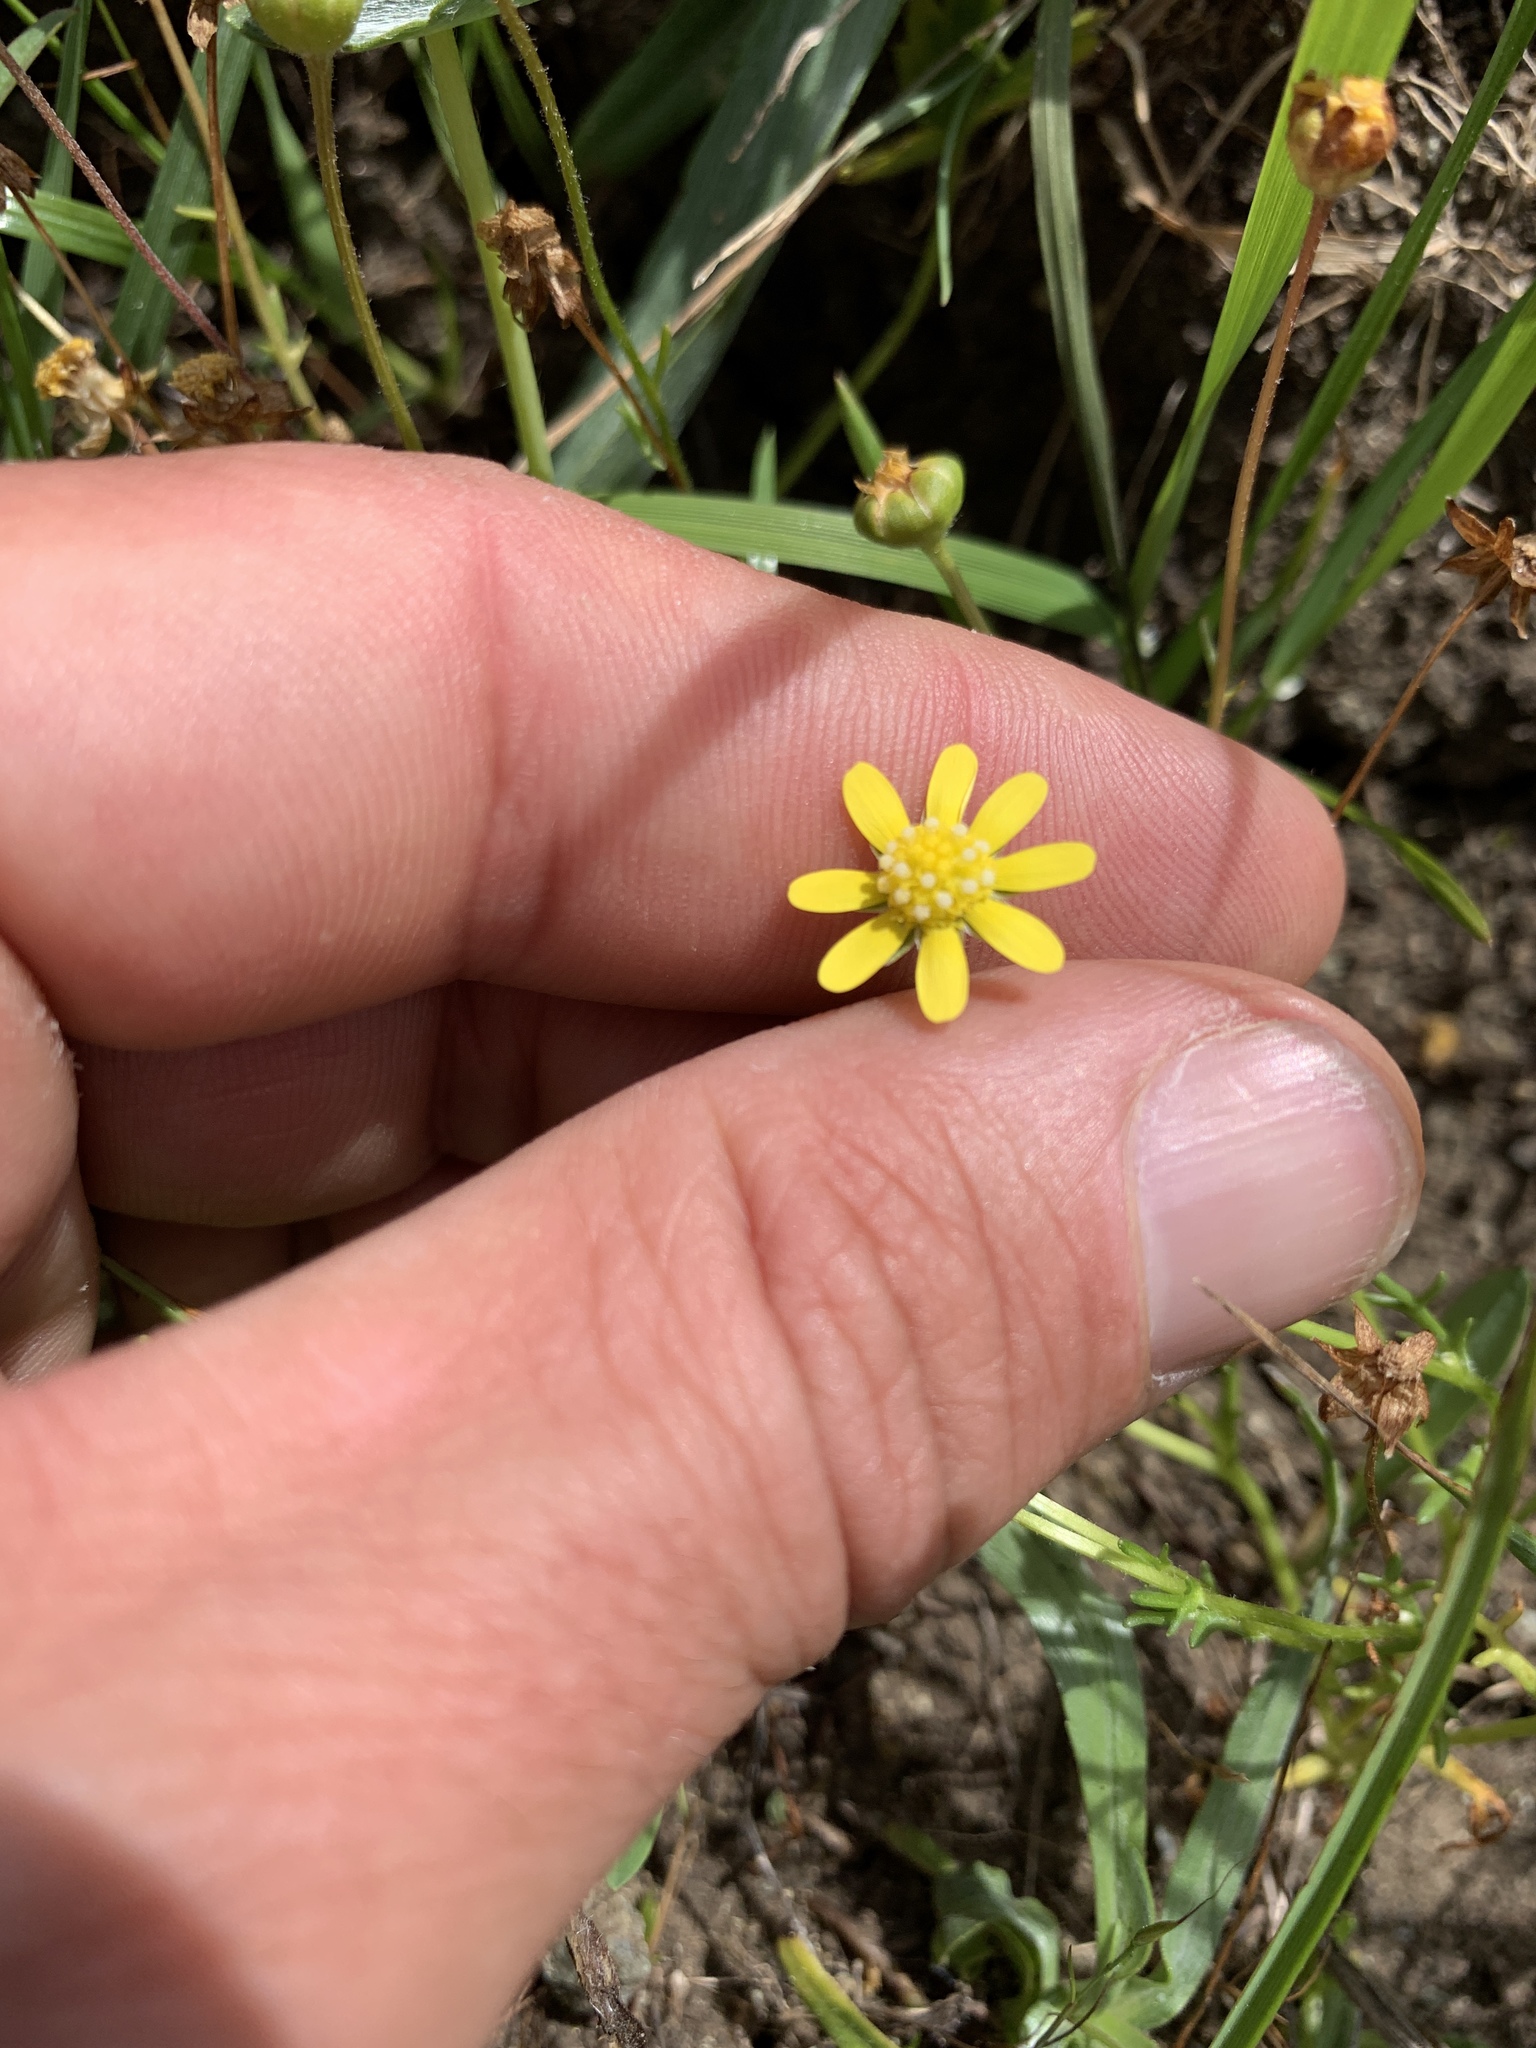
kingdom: Plantae
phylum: Tracheophyta
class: Magnoliopsida
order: Asterales
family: Asteraceae
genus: Blennosperma
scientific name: Blennosperma nanum
